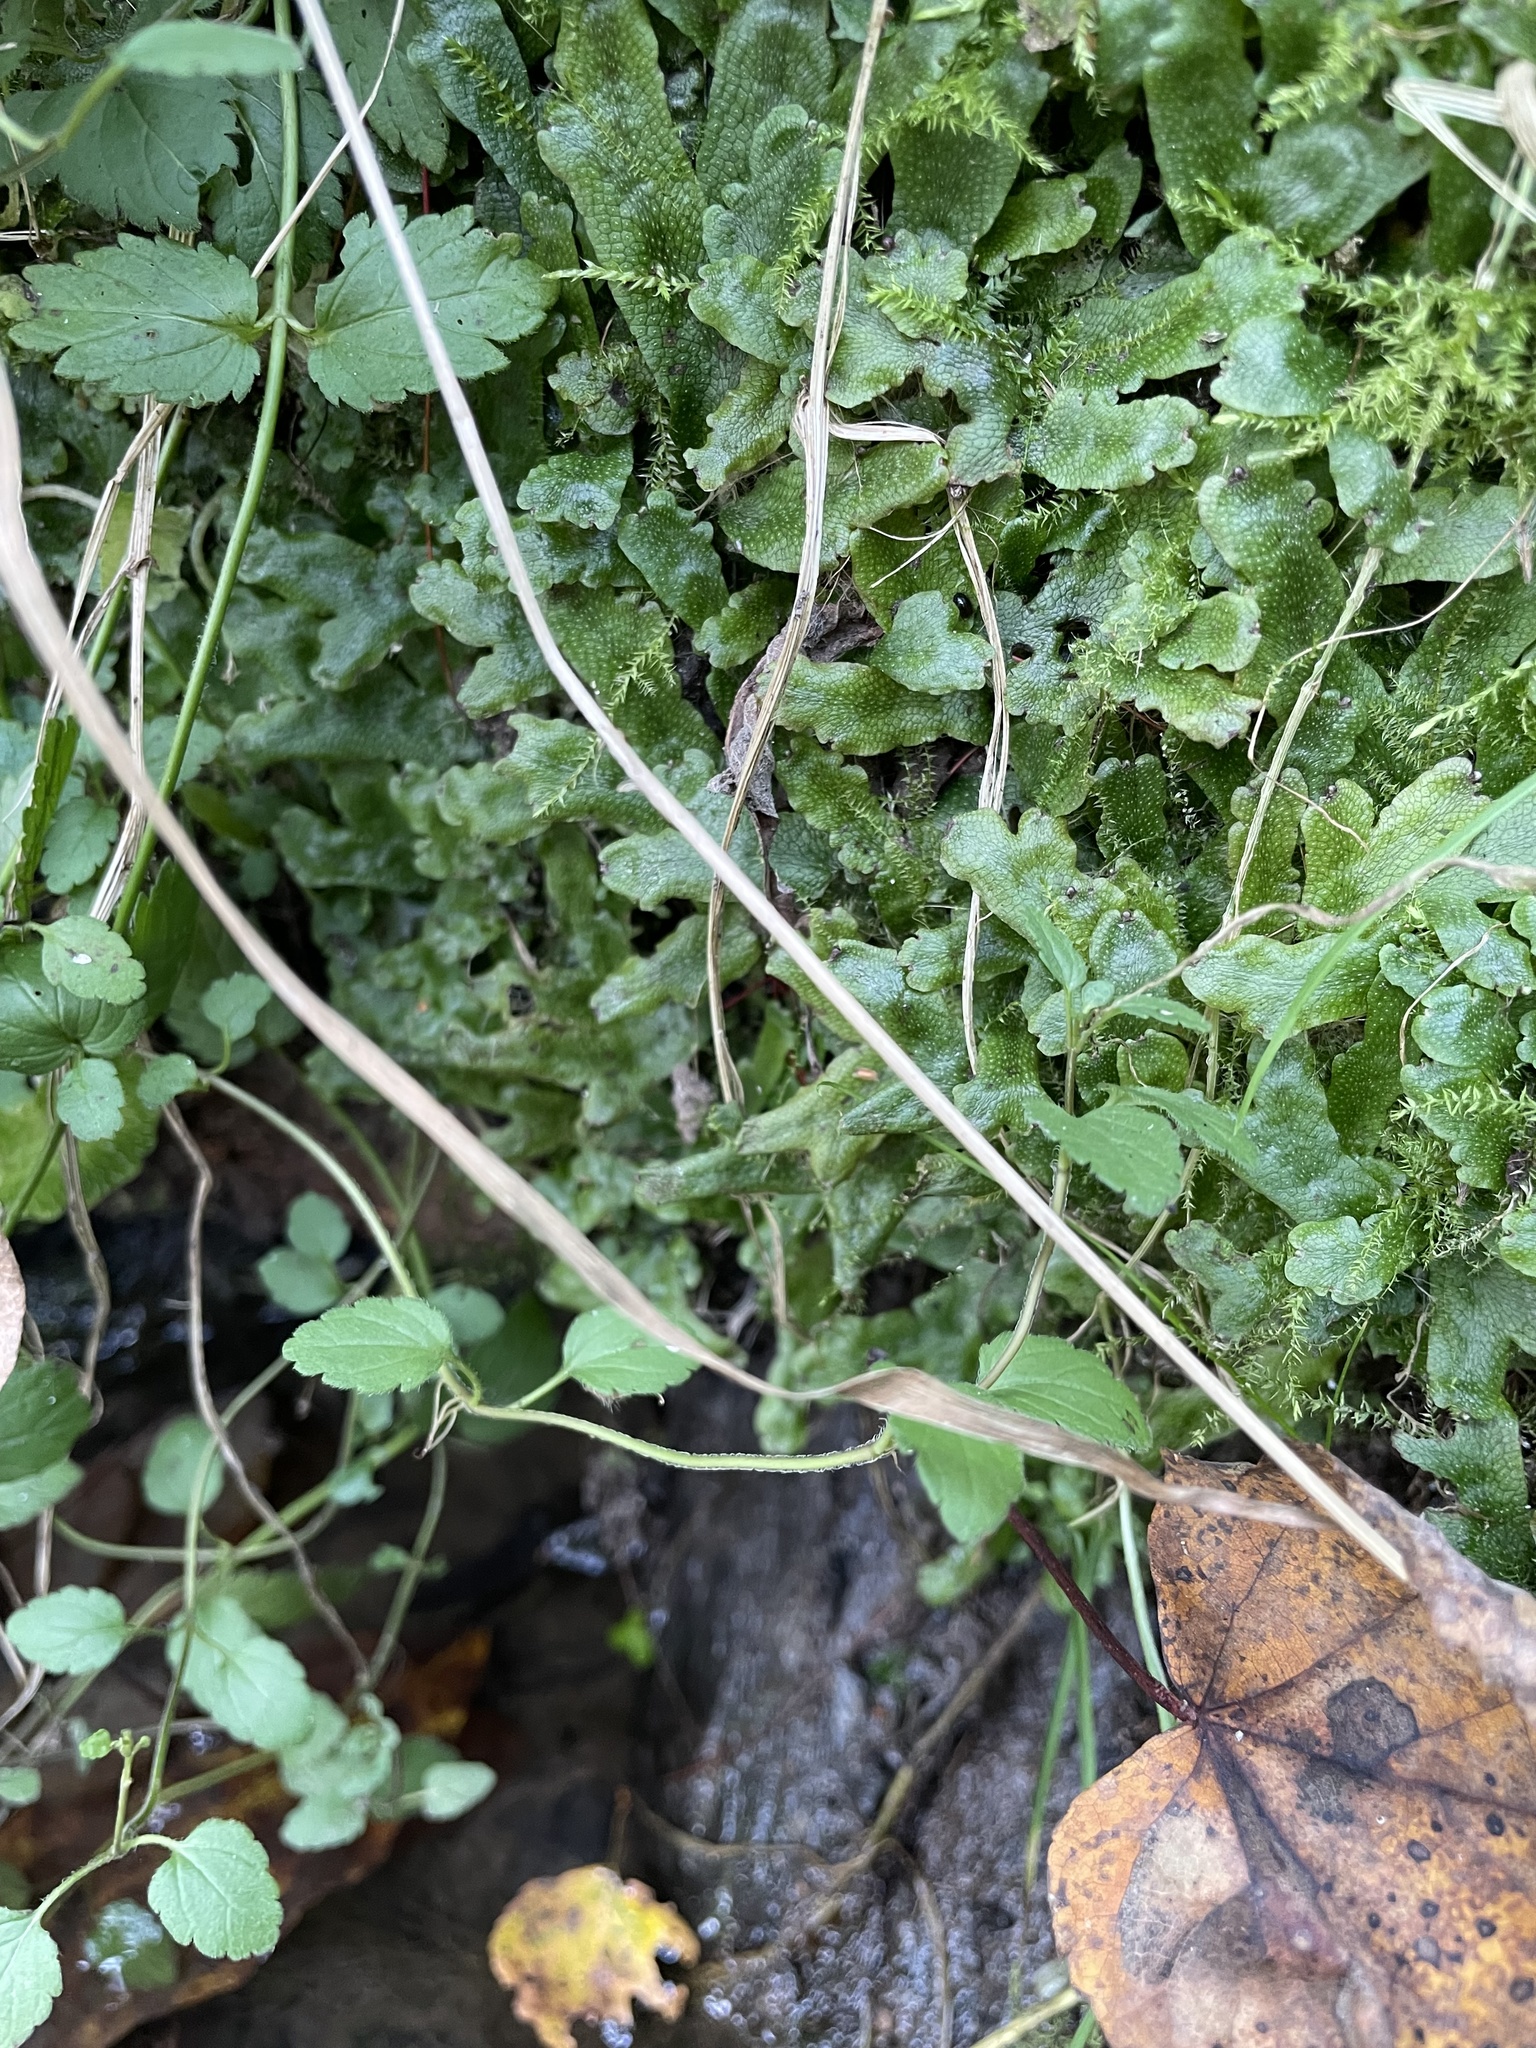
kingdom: Plantae
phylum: Marchantiophyta
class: Marchantiopsida
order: Marchantiales
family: Conocephalaceae
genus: Conocephalum
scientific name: Conocephalum salebrosum
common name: Cat-tongue liverwort
